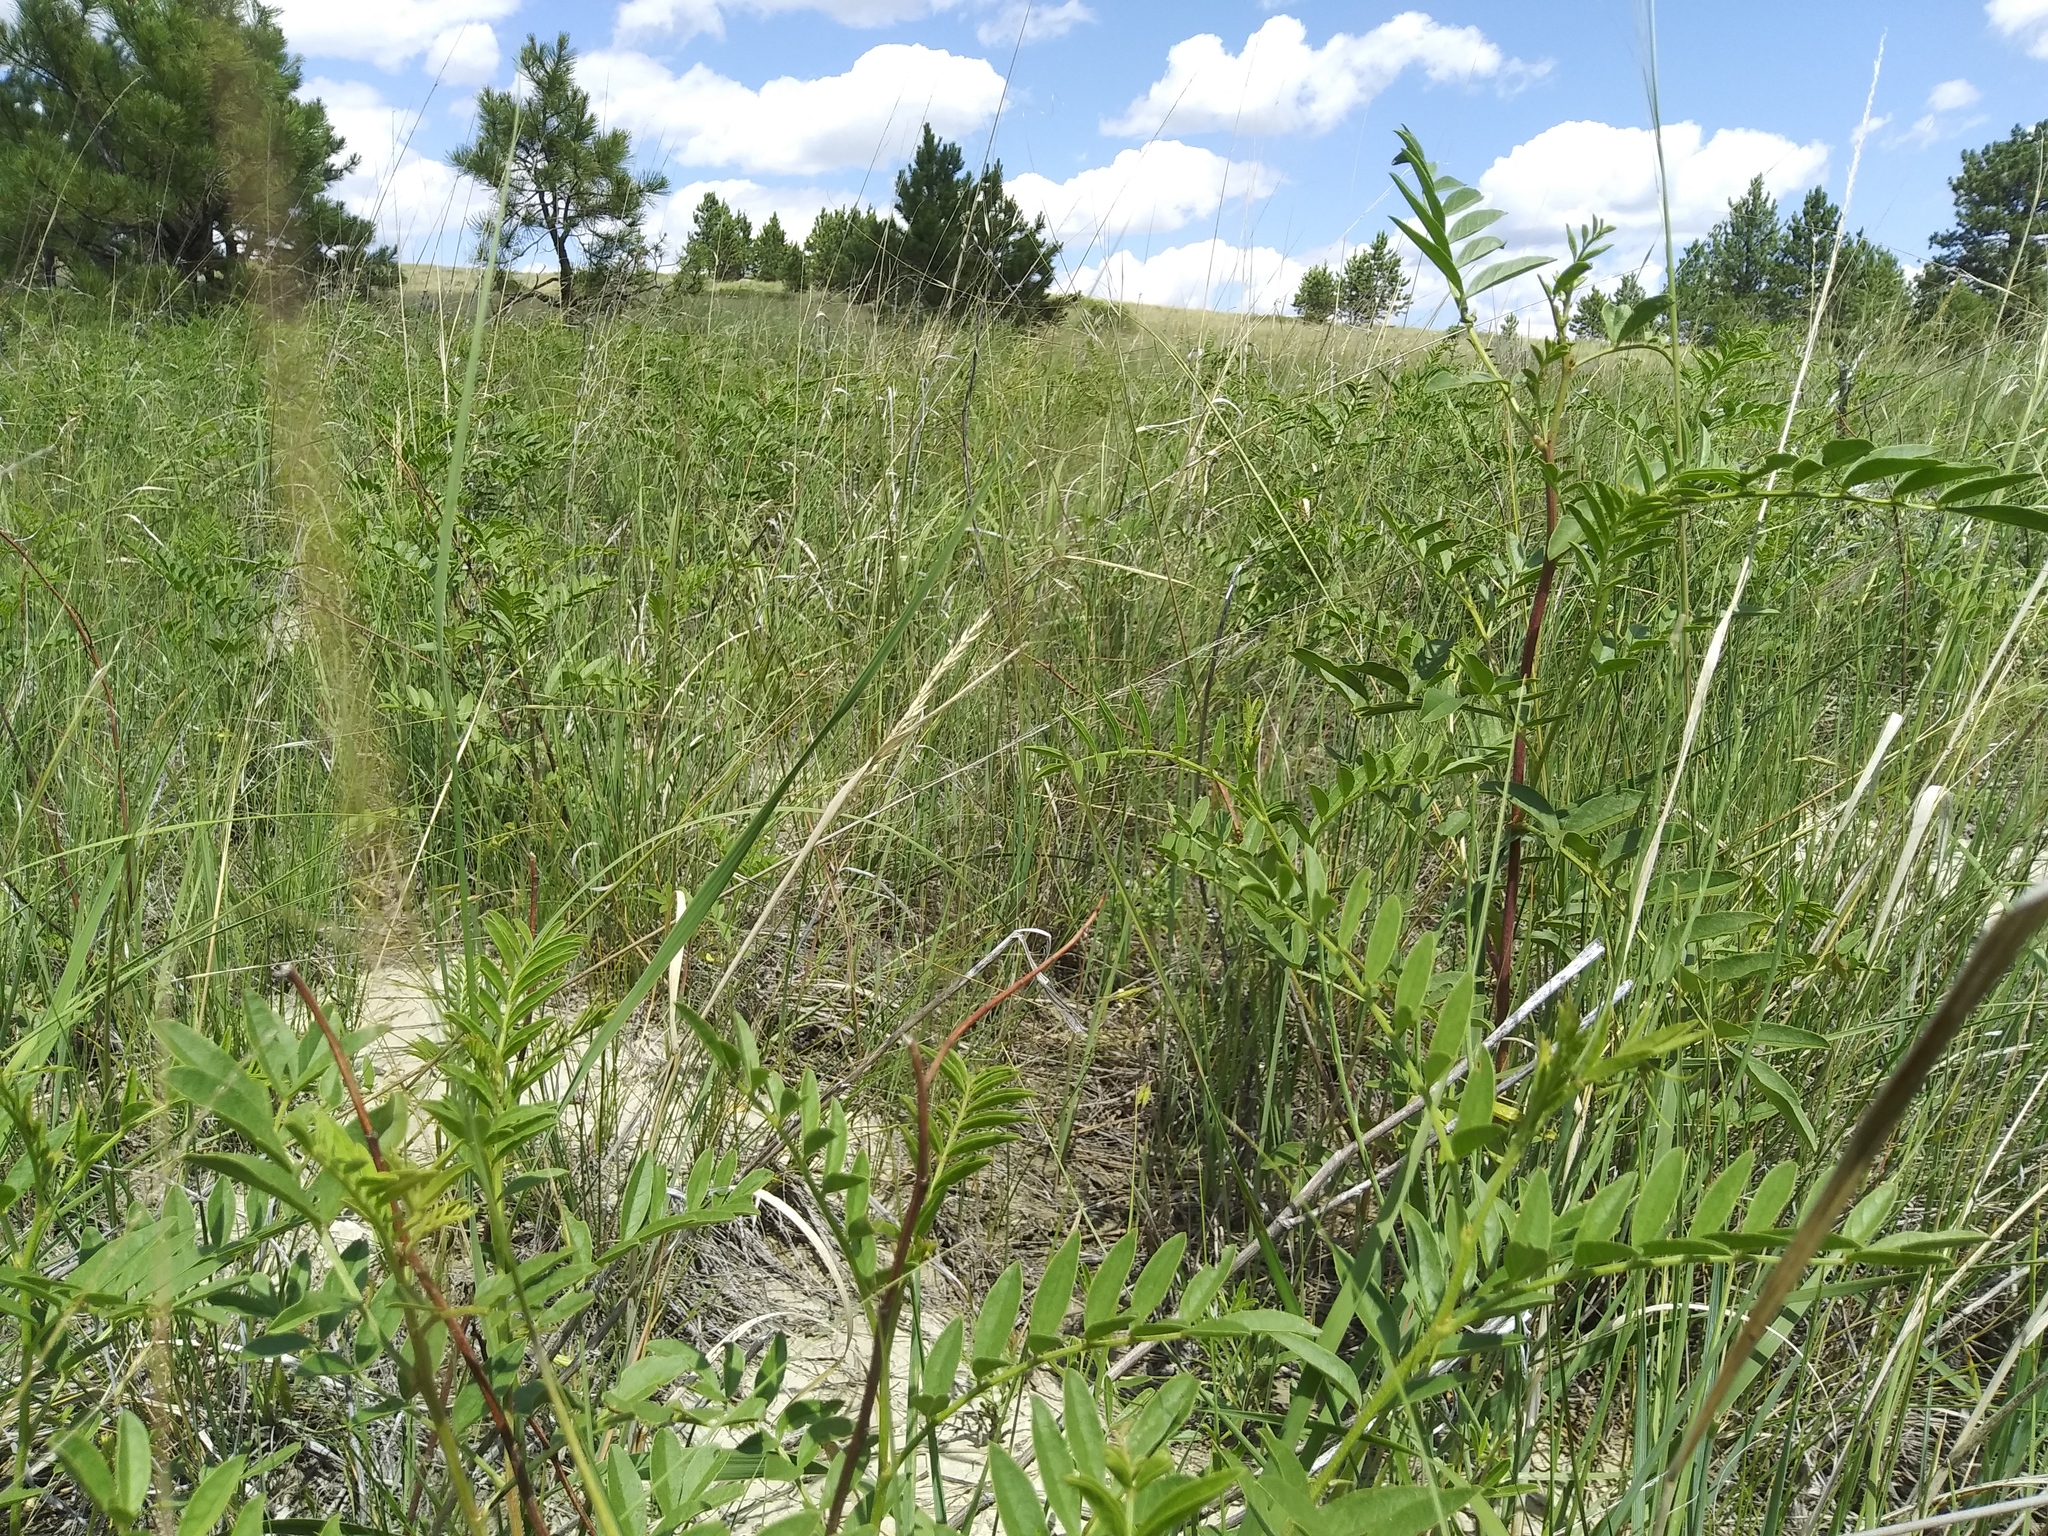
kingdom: Plantae
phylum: Tracheophyta
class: Magnoliopsida
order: Fabales
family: Fabaceae
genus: Glycyrrhiza
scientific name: Glycyrrhiza lepidota
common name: American liquorice
